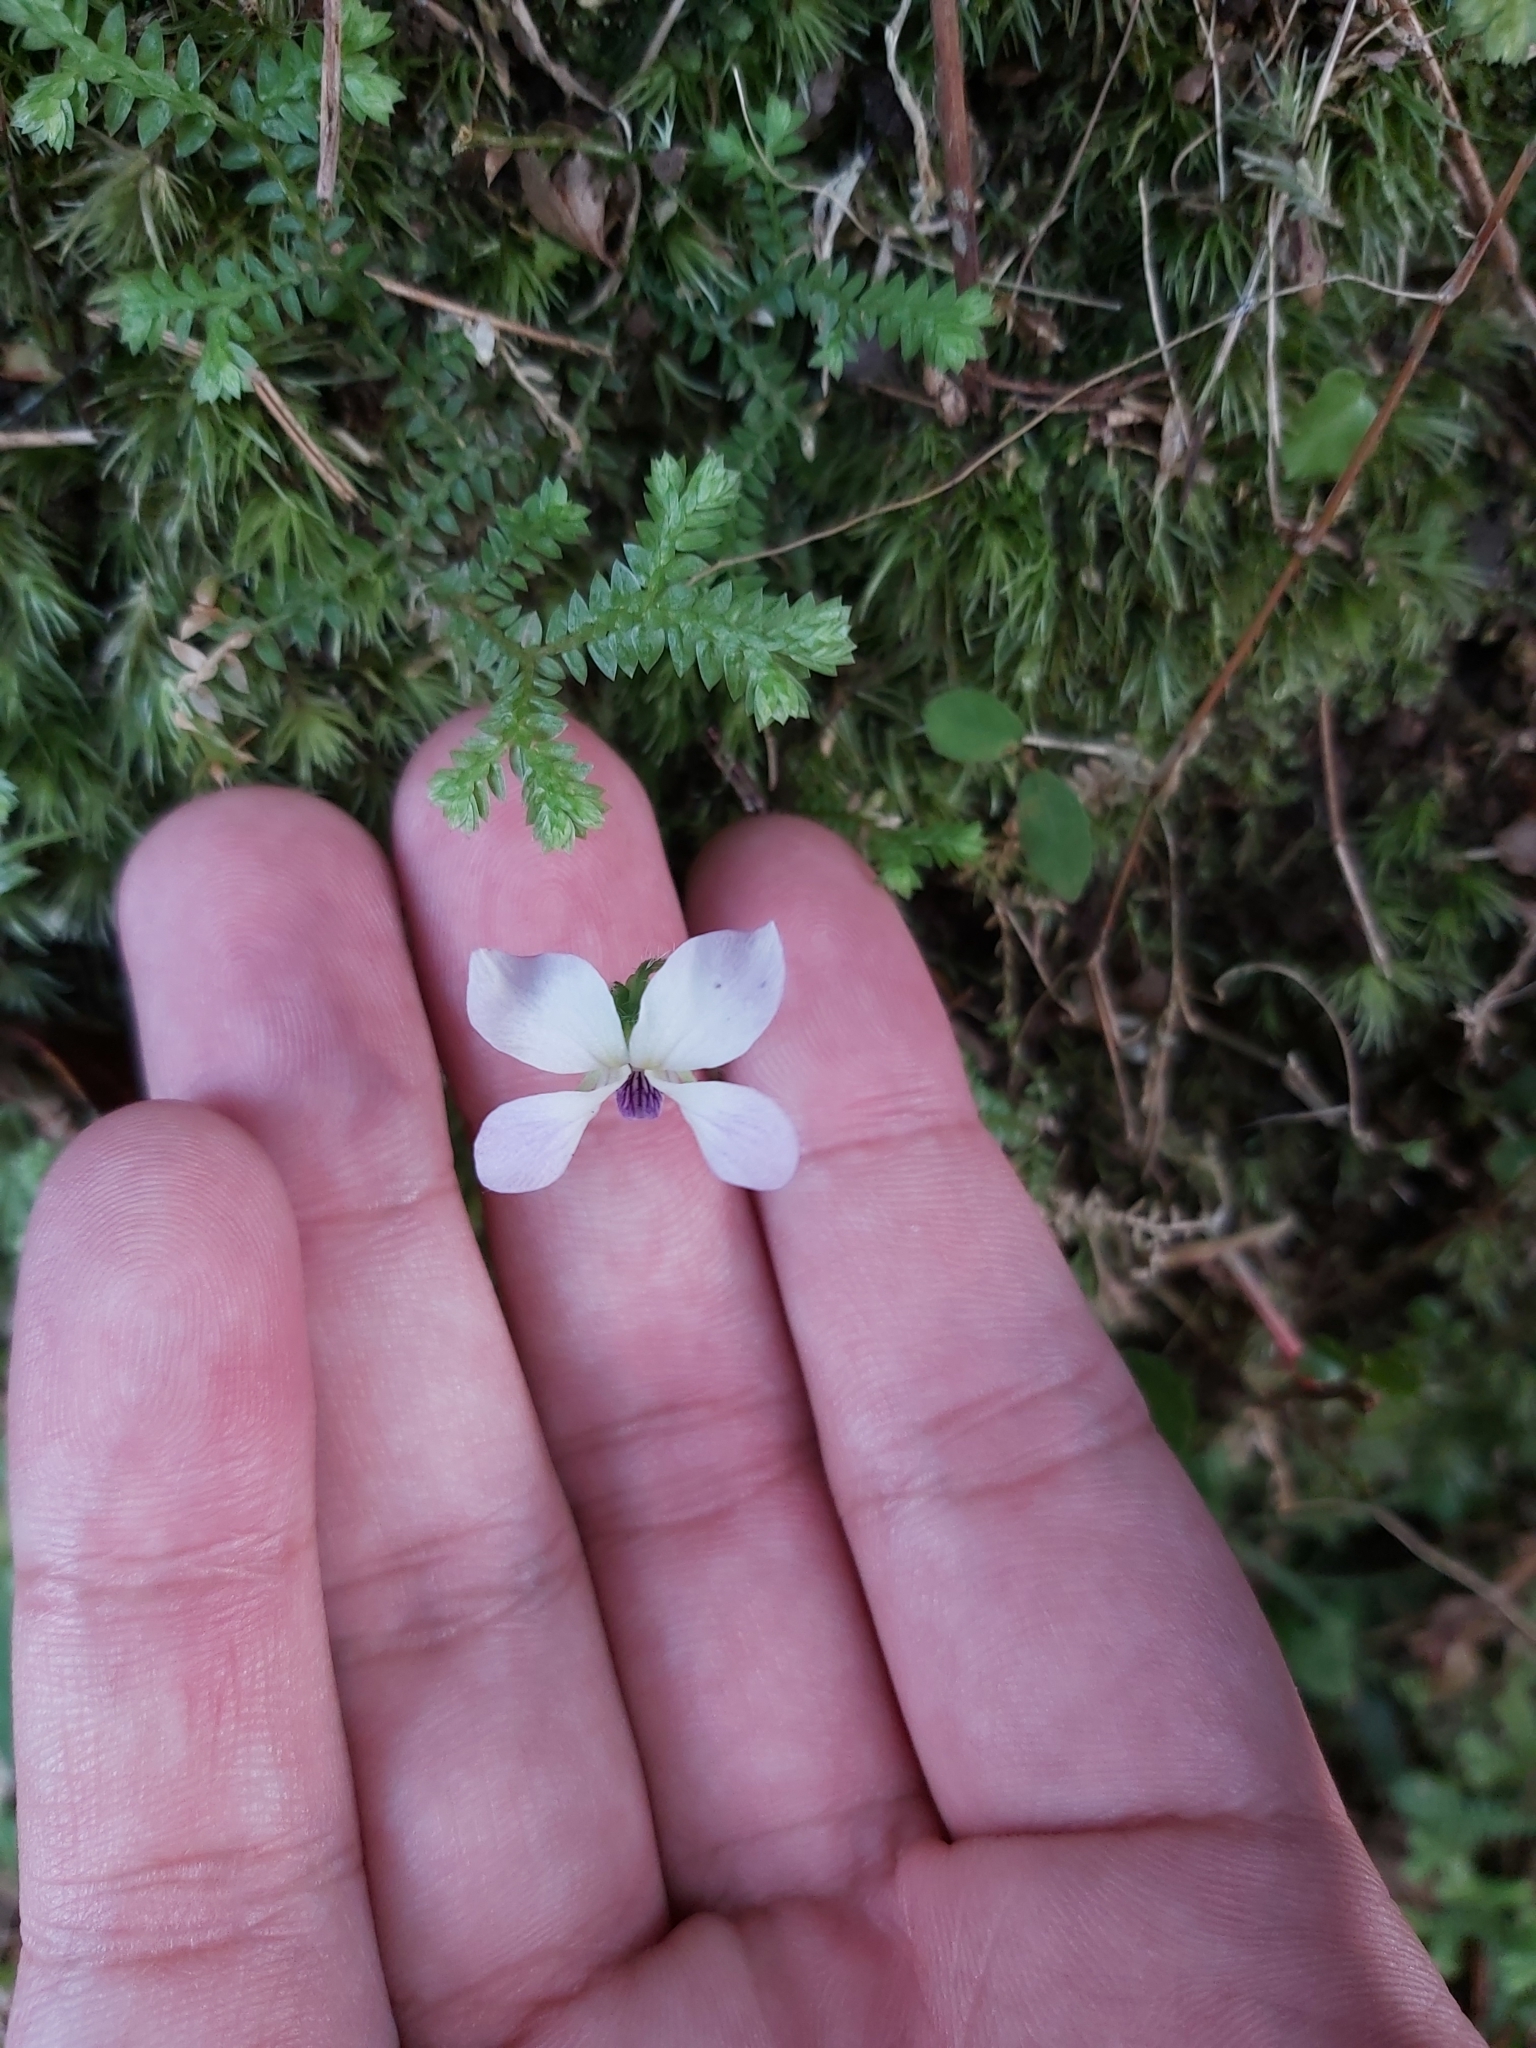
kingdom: Plantae
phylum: Tracheophyta
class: Magnoliopsida
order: Malpighiales
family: Violaceae
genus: Viola
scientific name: Viola nagasawae
